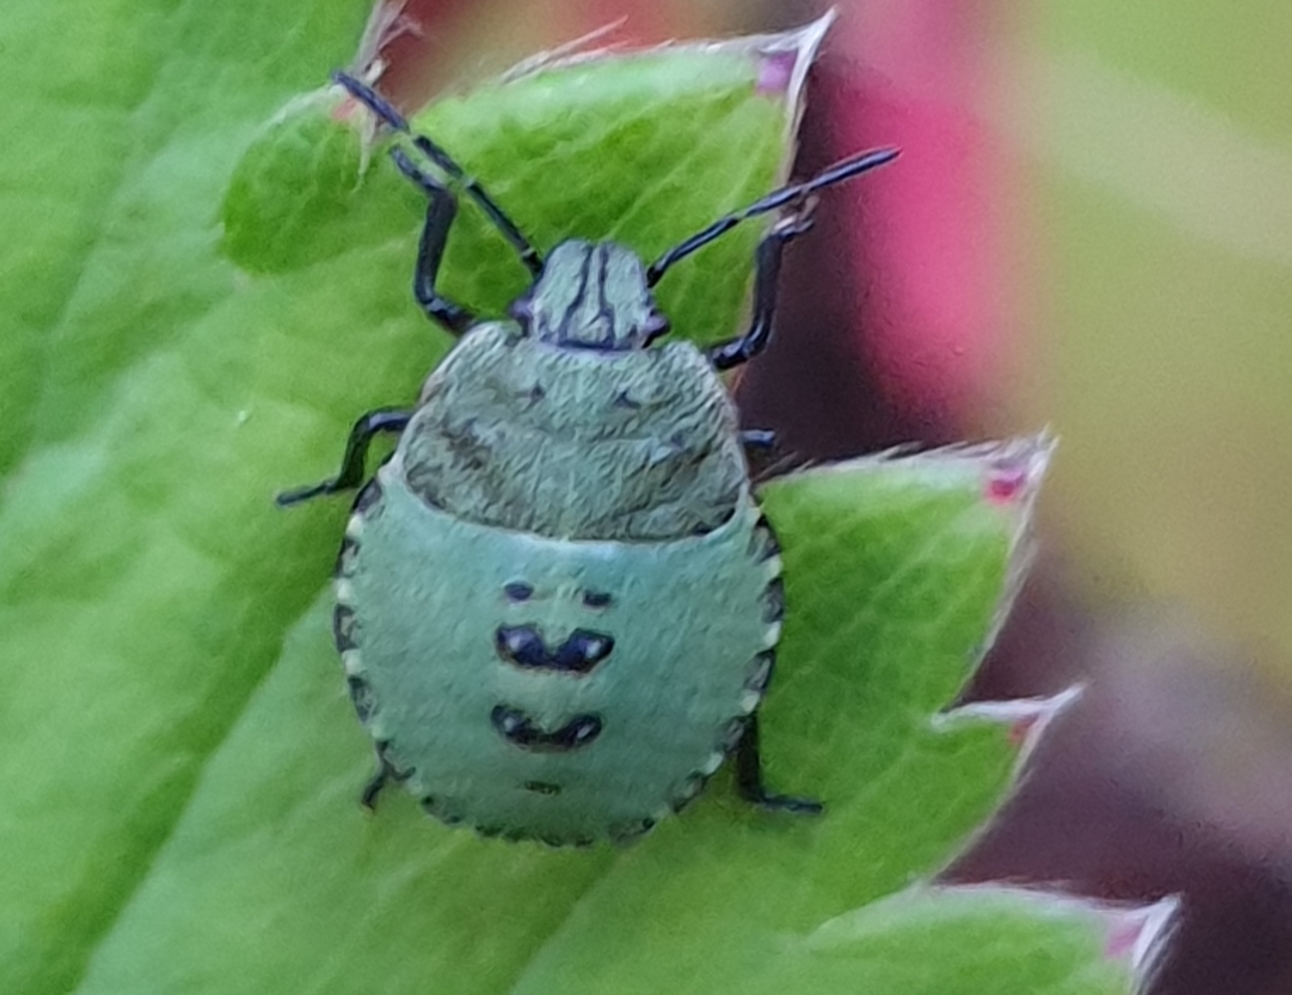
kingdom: Animalia
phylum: Arthropoda
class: Insecta
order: Hemiptera
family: Pentatomidae
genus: Palomena
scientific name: Palomena prasina
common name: Green shieldbug
